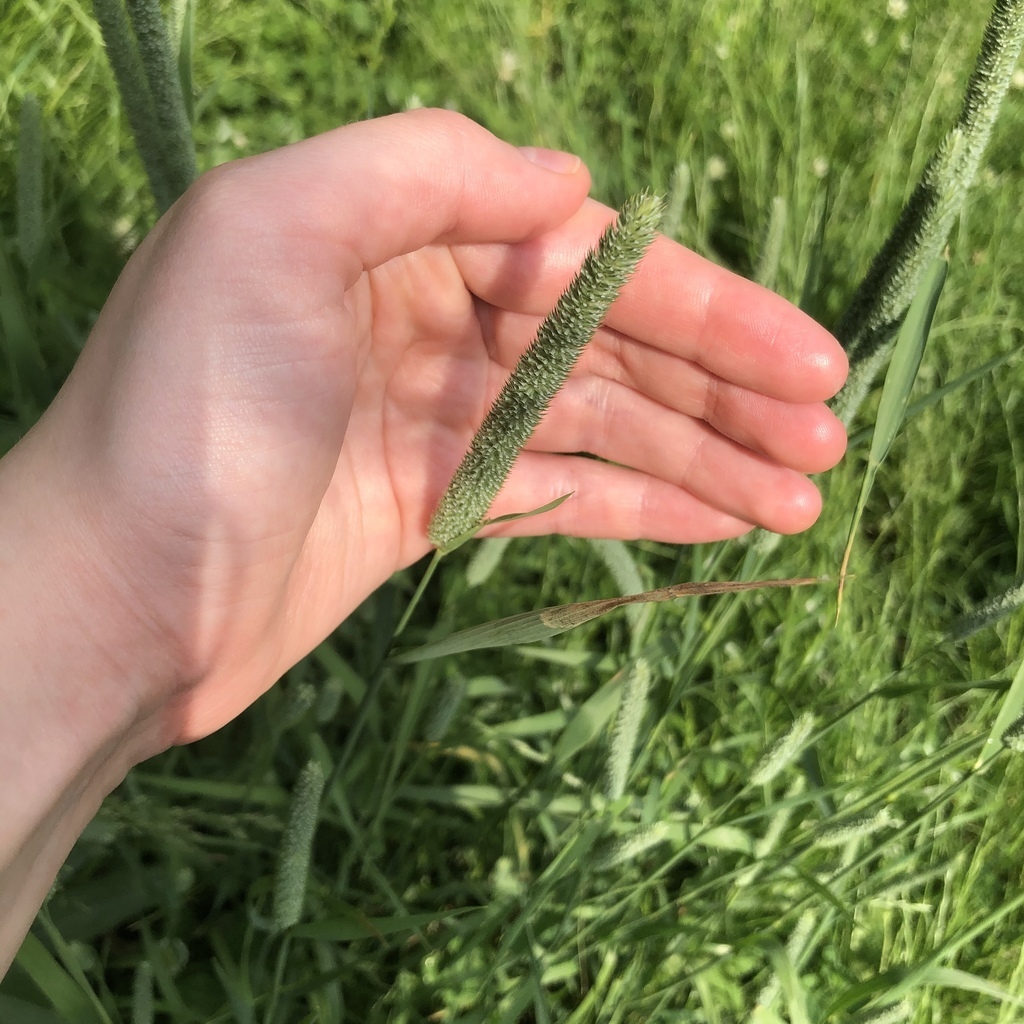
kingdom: Plantae
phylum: Tracheophyta
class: Liliopsida
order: Poales
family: Poaceae
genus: Phleum
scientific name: Phleum pratense
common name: Timothy grass
